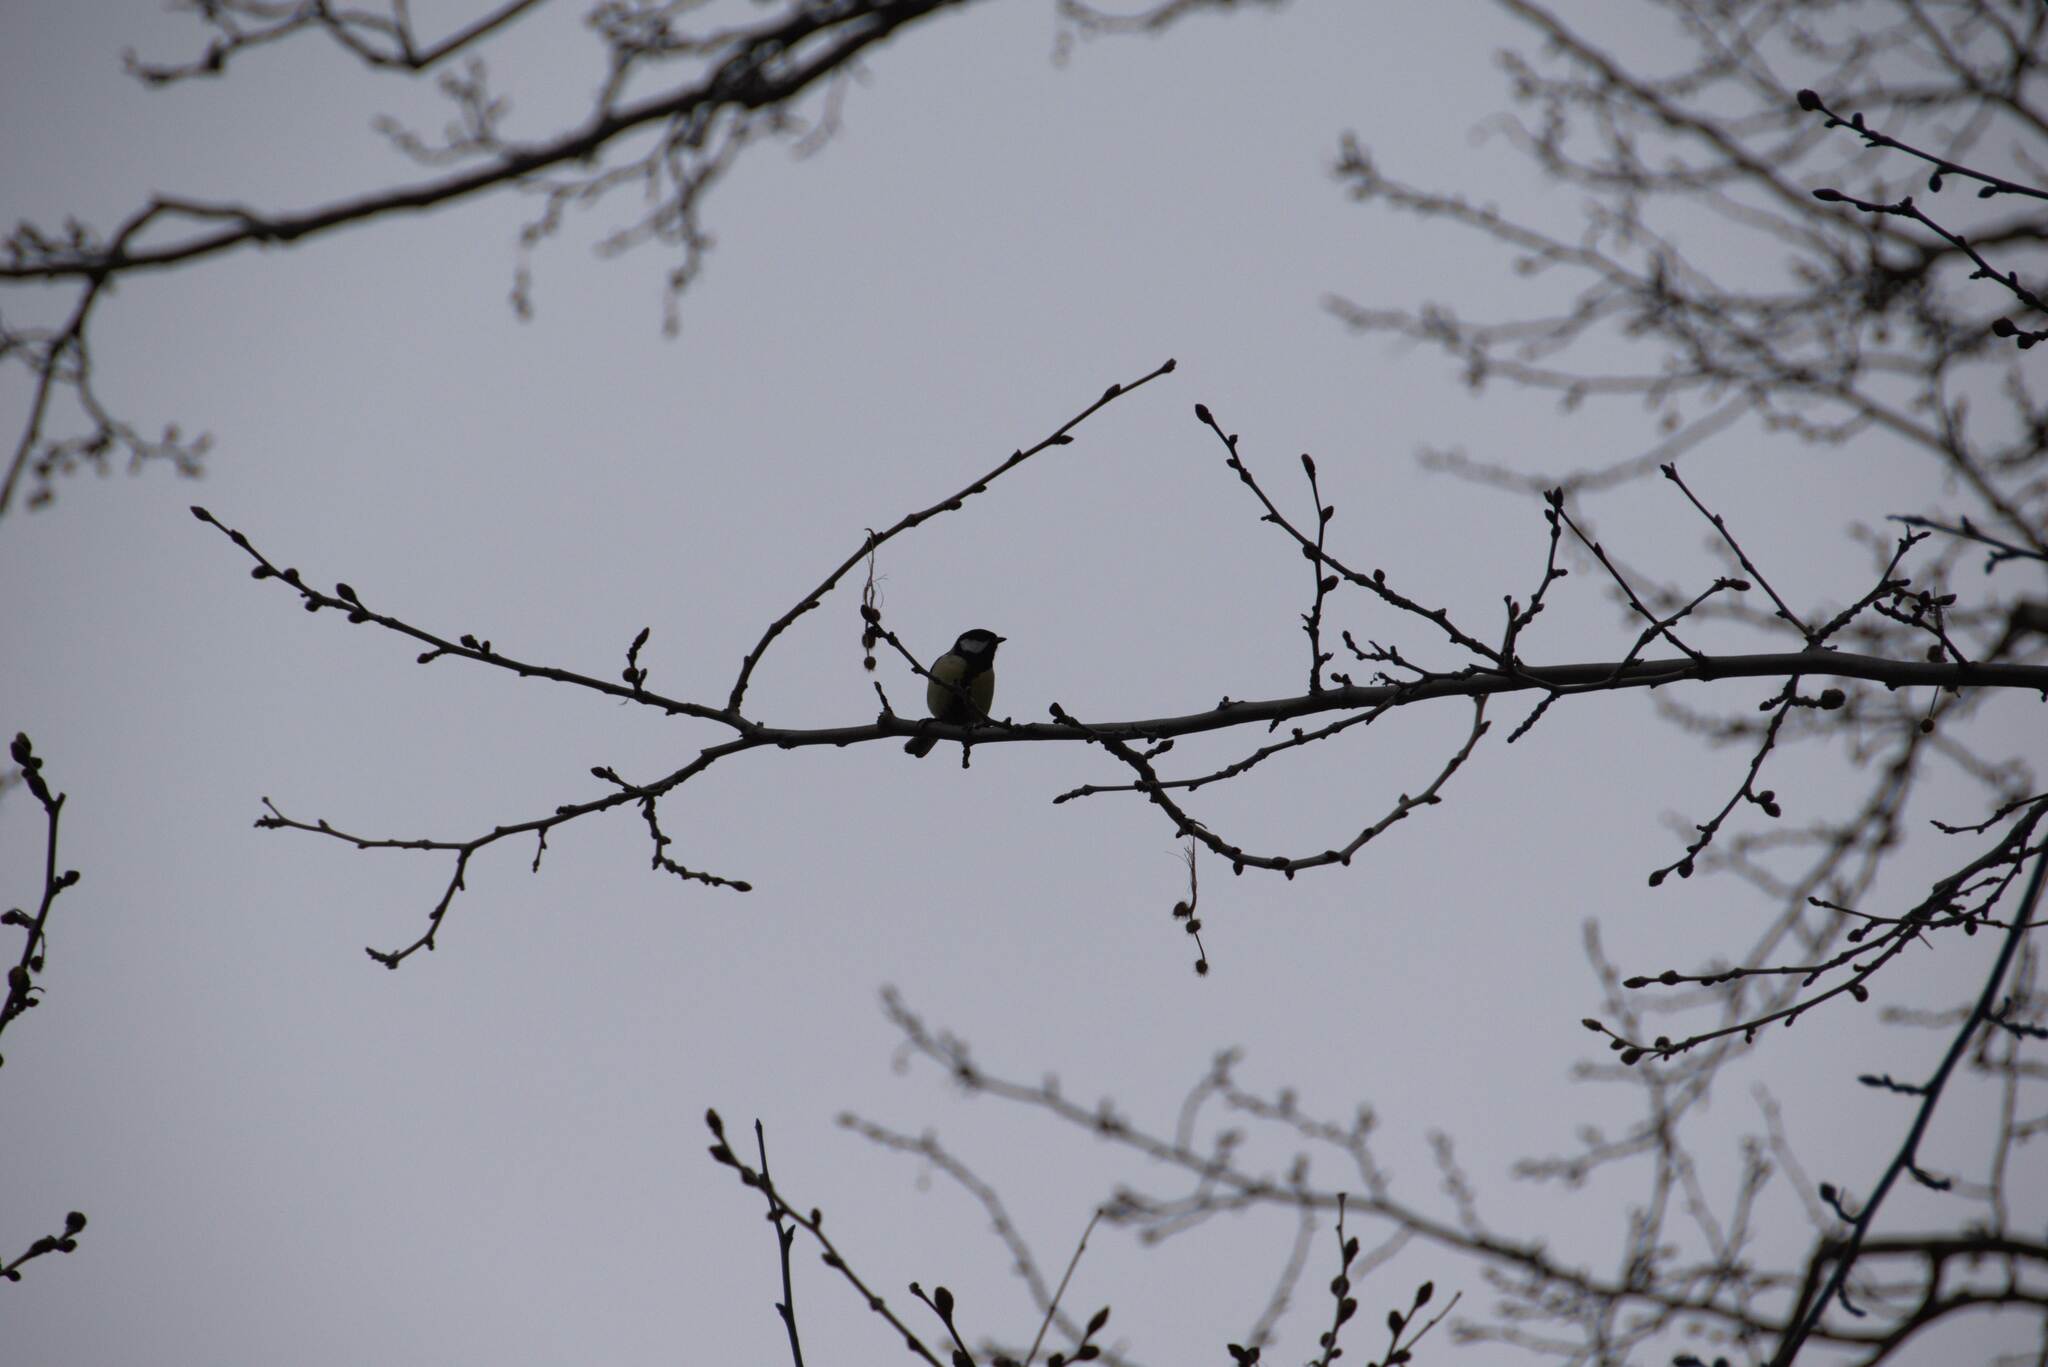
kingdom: Animalia
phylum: Chordata
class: Aves
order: Passeriformes
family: Paridae
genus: Parus
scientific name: Parus major
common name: Great tit
